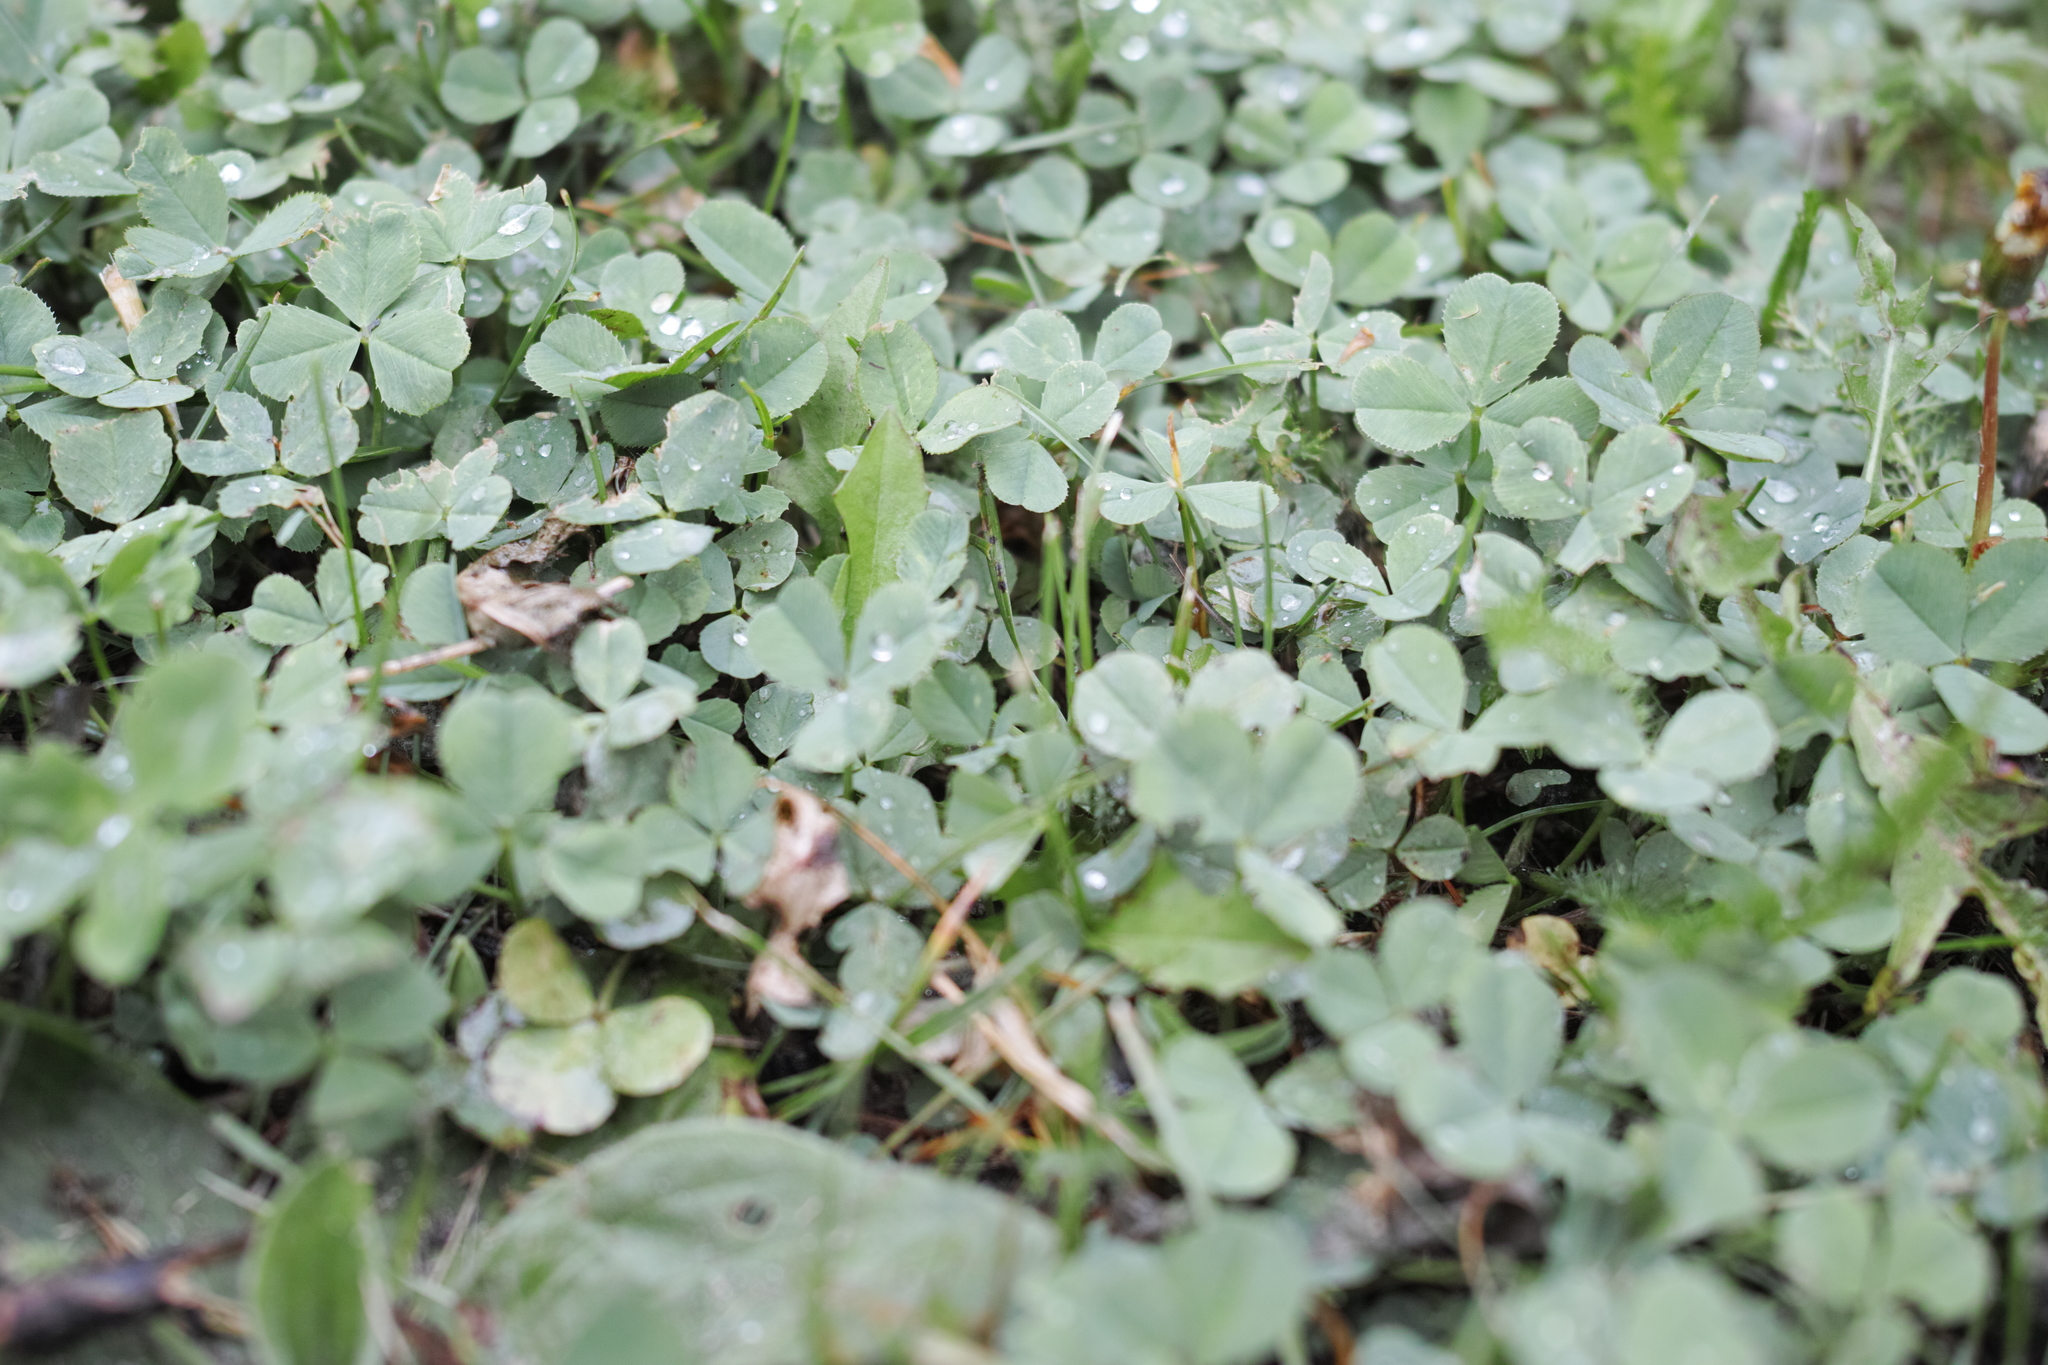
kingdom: Plantae
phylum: Tracheophyta
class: Magnoliopsida
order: Fabales
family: Fabaceae
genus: Trifolium
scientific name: Trifolium repens
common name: White clover
